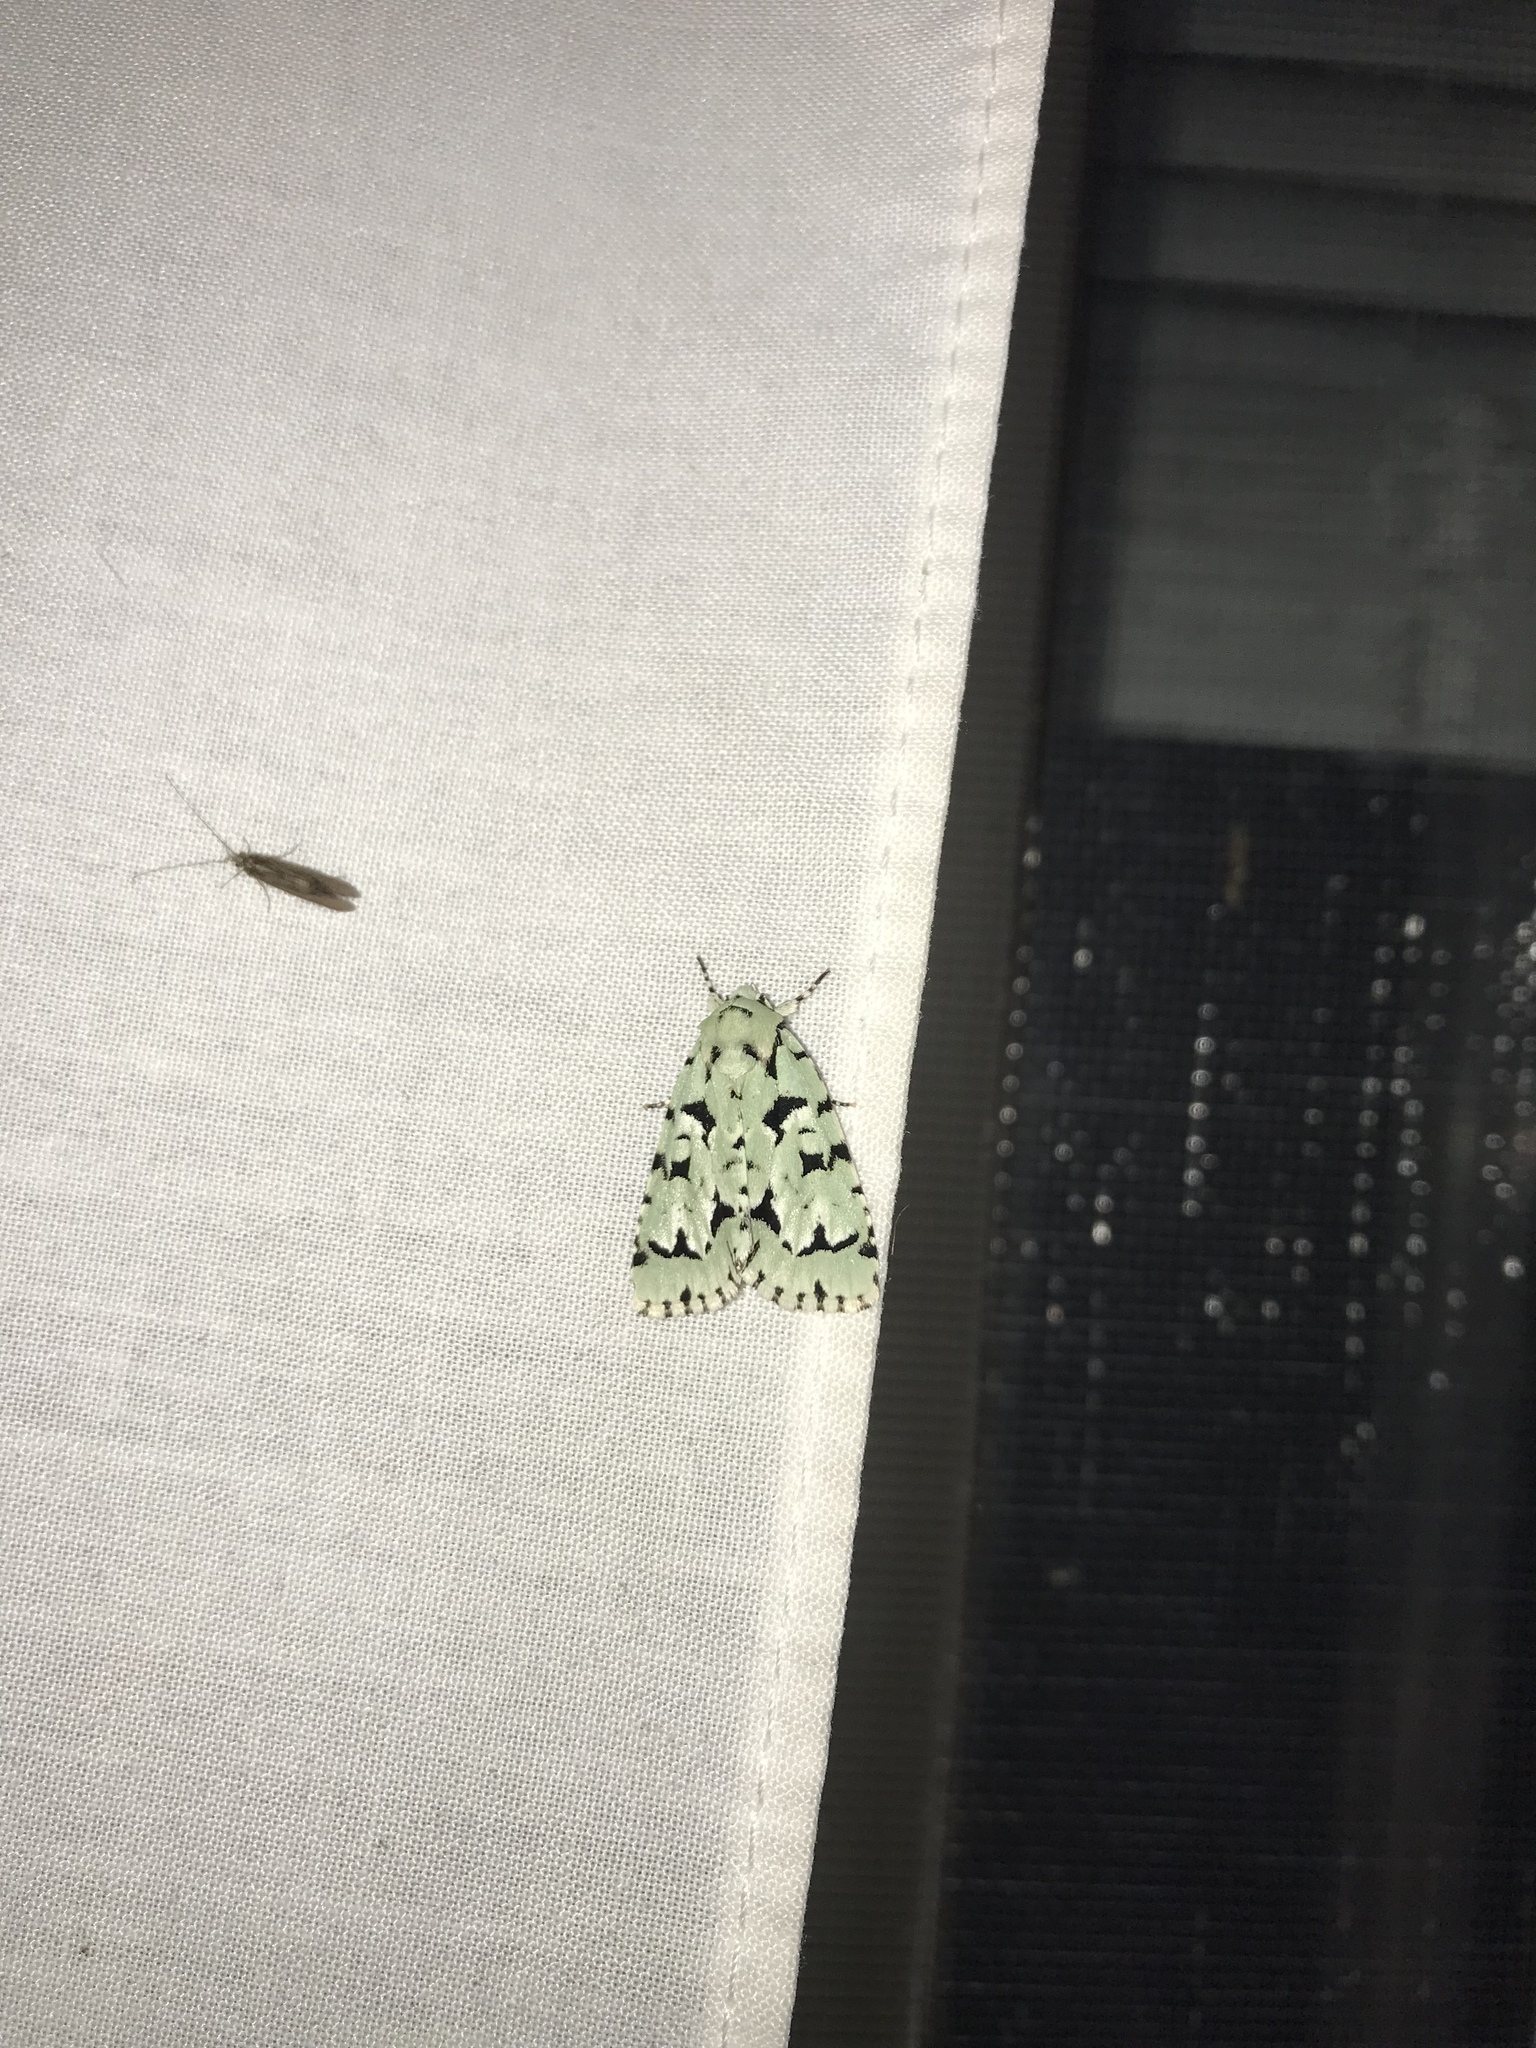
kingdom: Animalia
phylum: Arthropoda
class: Insecta
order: Lepidoptera
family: Noctuidae
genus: Acronicta
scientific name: Acronicta fallax
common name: Green marvel
